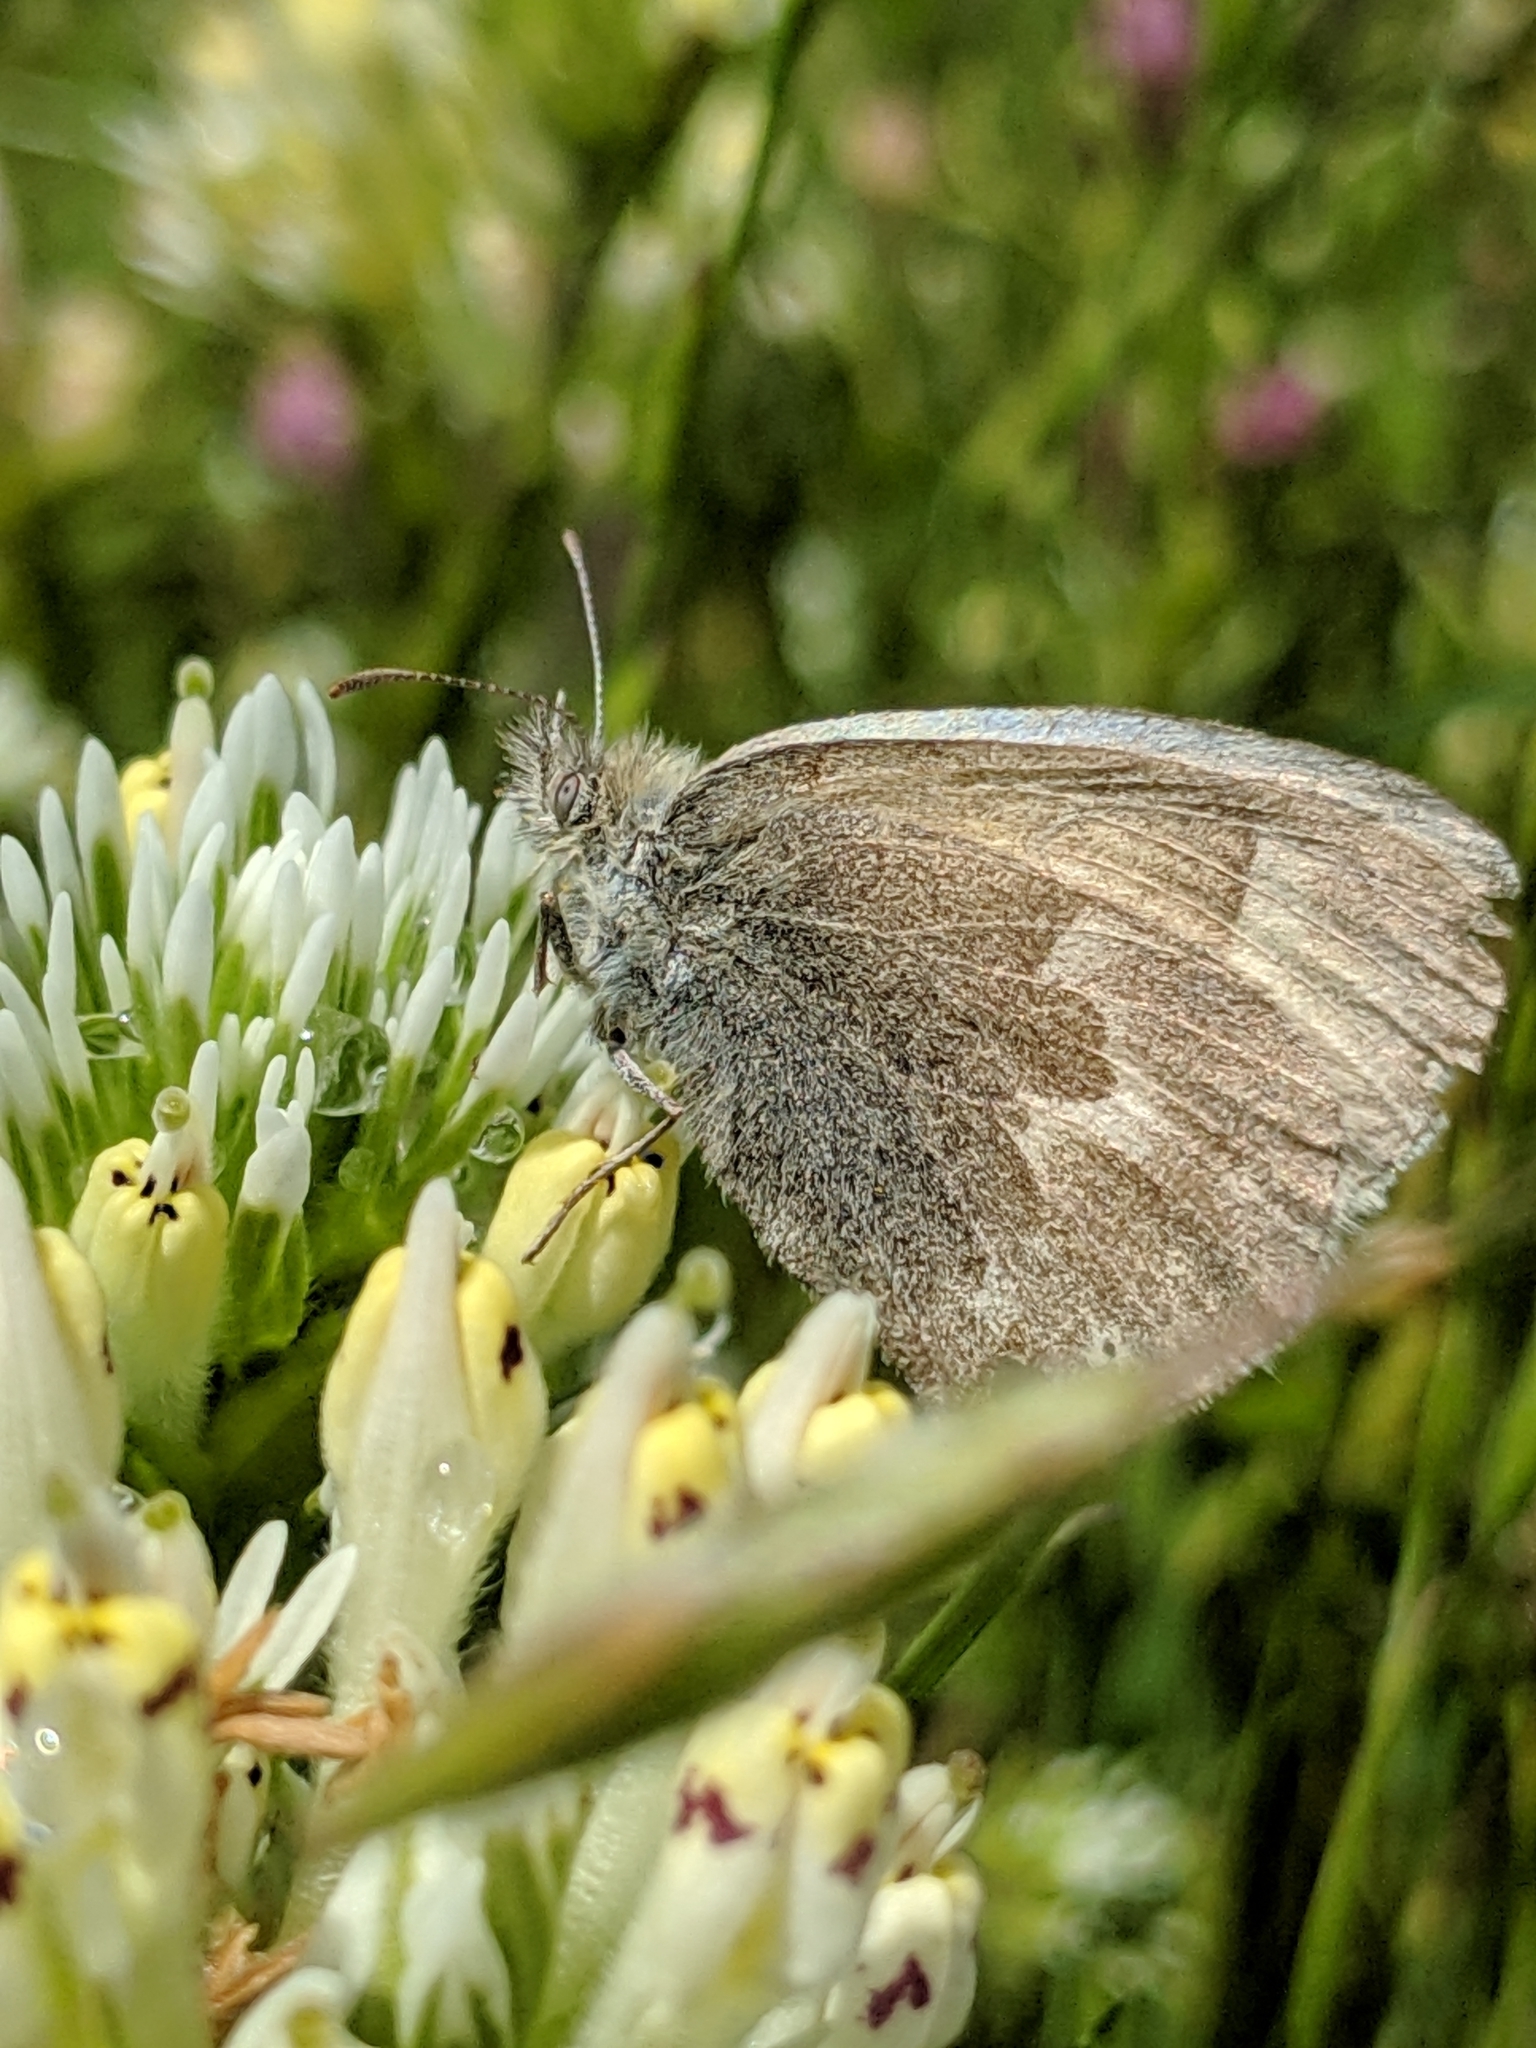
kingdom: Animalia
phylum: Arthropoda
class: Insecta
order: Lepidoptera
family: Nymphalidae
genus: Coenonympha
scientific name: Coenonympha california
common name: Common ringlet
